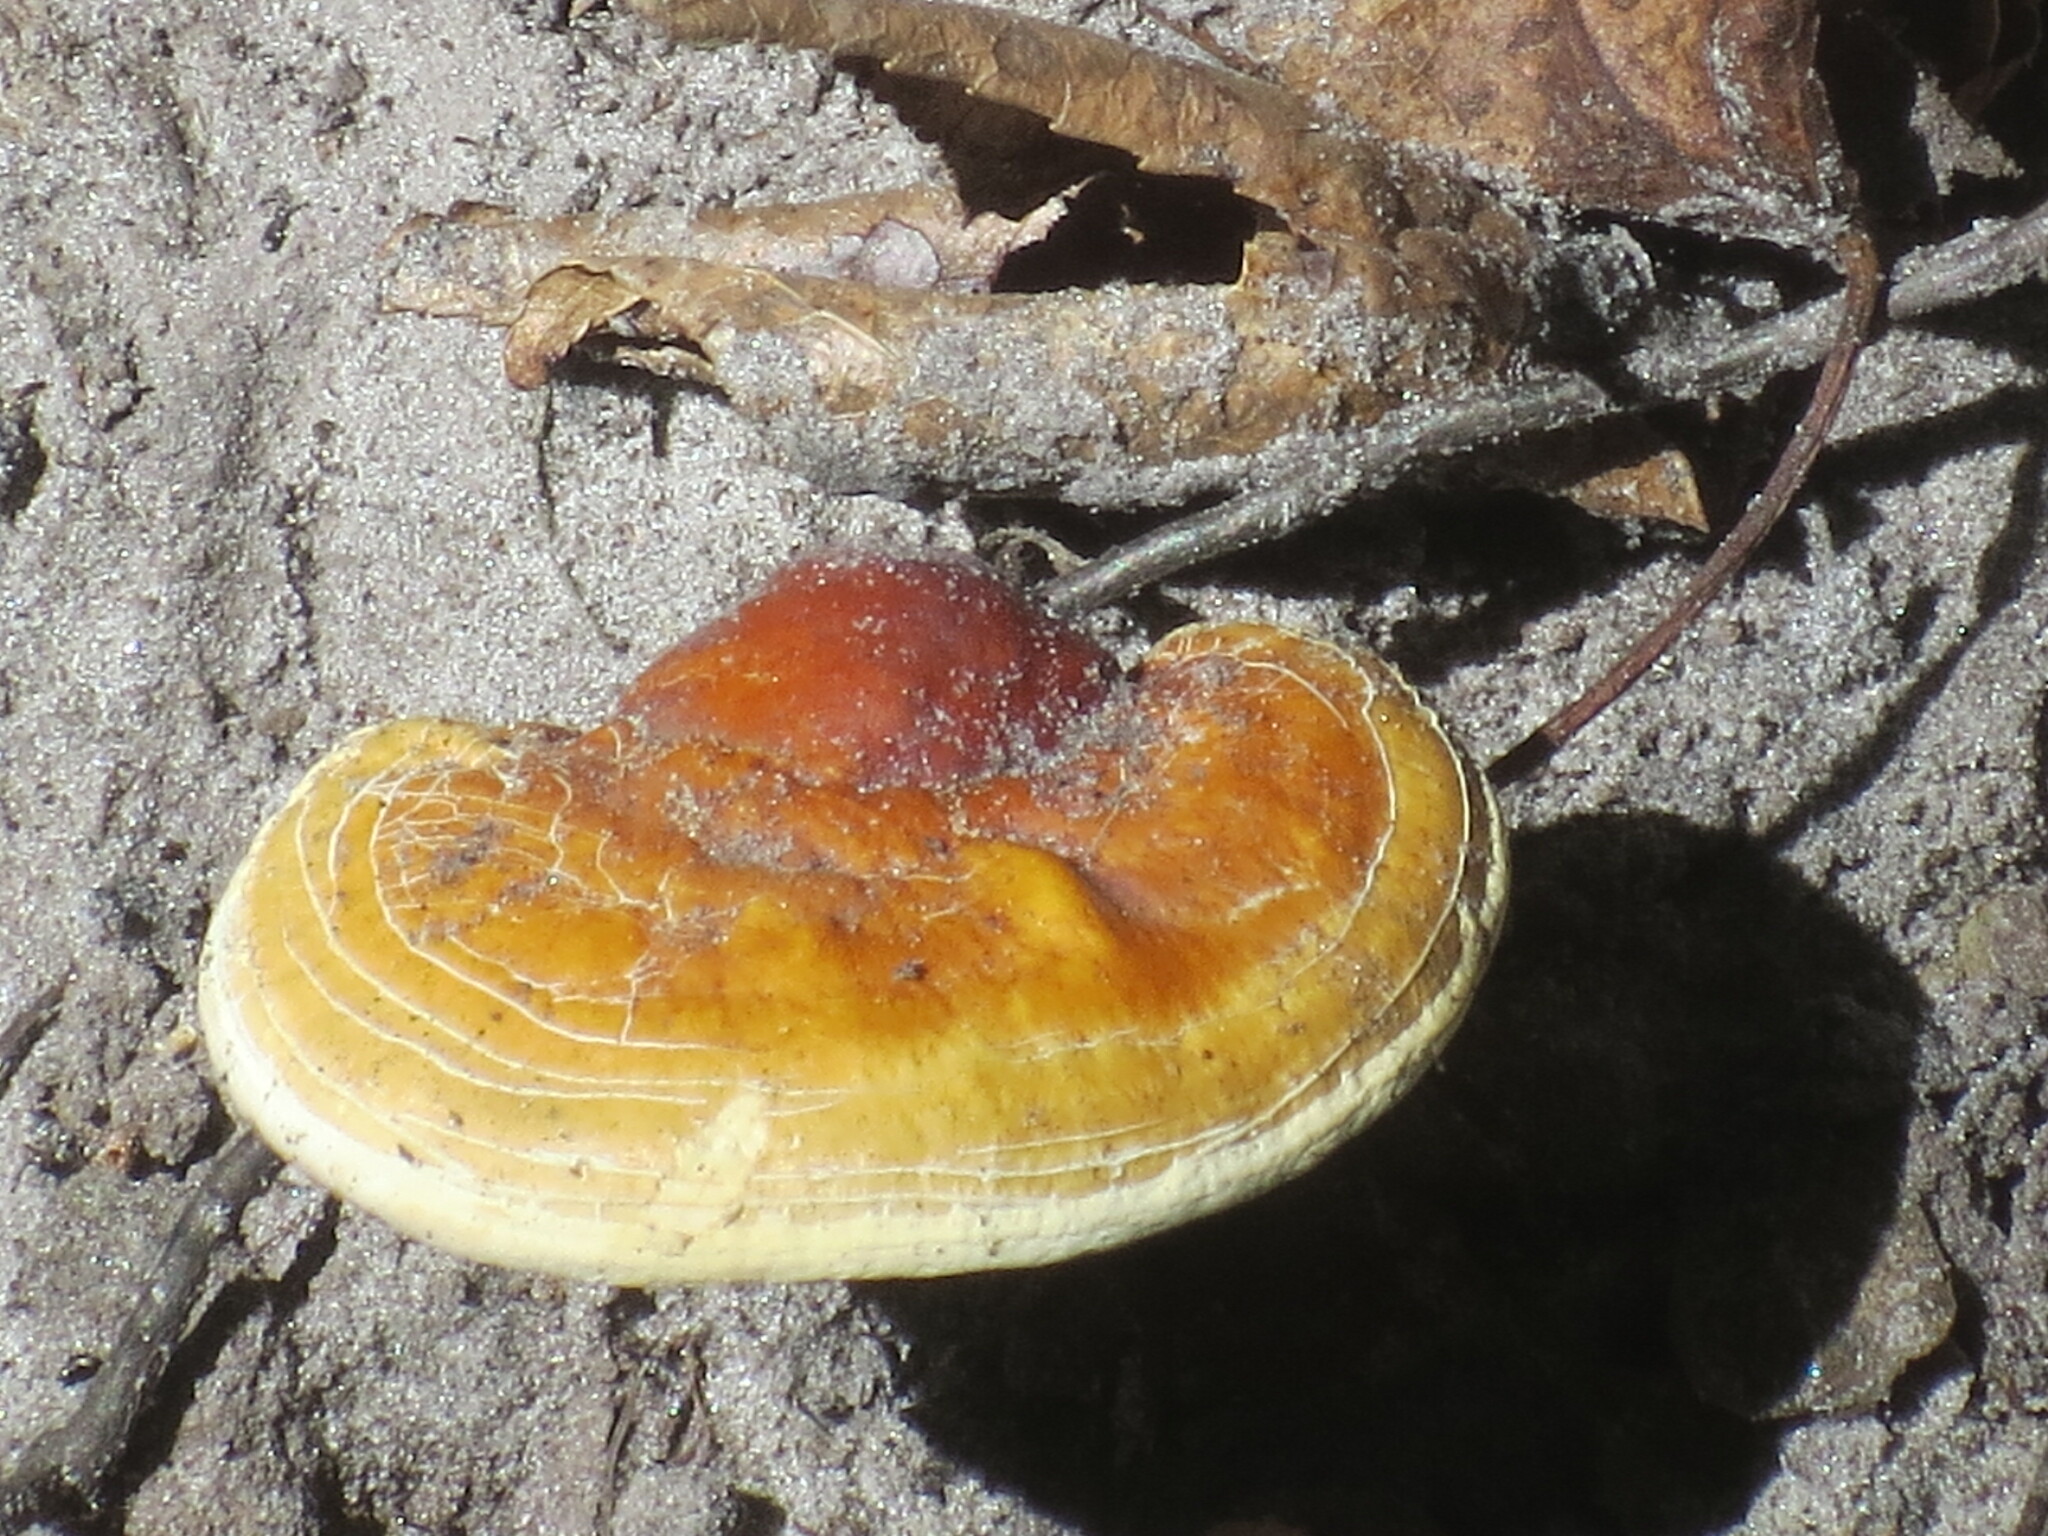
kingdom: Fungi
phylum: Basidiomycota
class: Agaricomycetes
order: Polyporales
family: Polyporaceae
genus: Ganoderma
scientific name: Ganoderma curtisii
